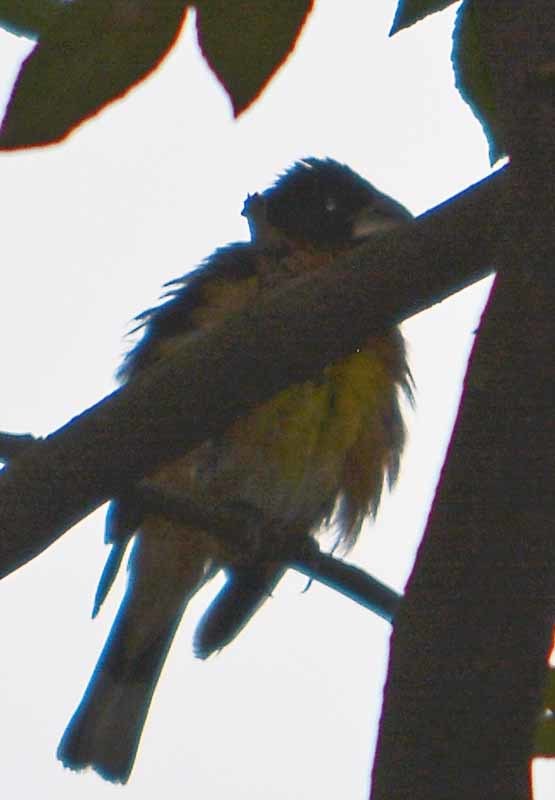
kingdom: Animalia
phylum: Chordata
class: Aves
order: Passeriformes
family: Cardinalidae
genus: Pheucticus
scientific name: Pheucticus melanocephalus
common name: Black-headed grosbeak
